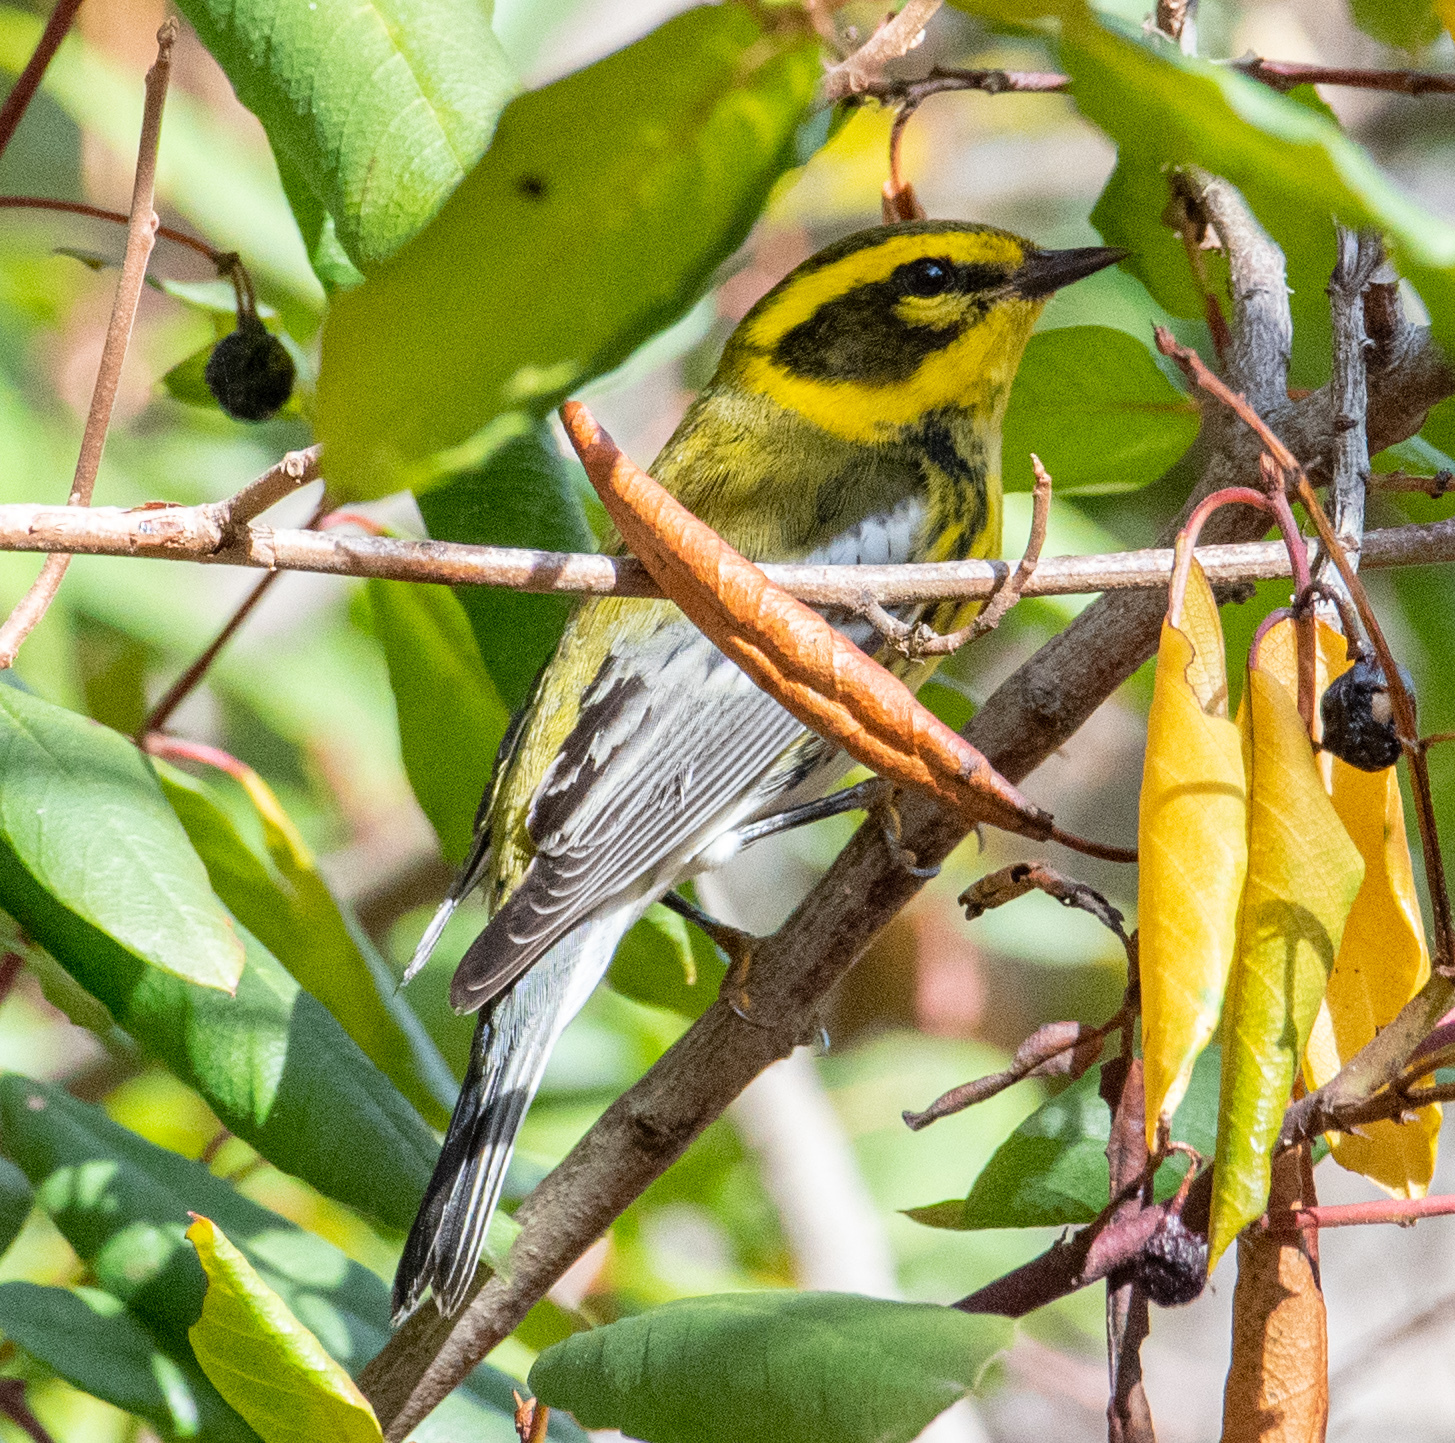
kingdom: Animalia
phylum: Chordata
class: Aves
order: Passeriformes
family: Parulidae
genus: Setophaga
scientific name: Setophaga townsendi
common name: Townsend's warbler
